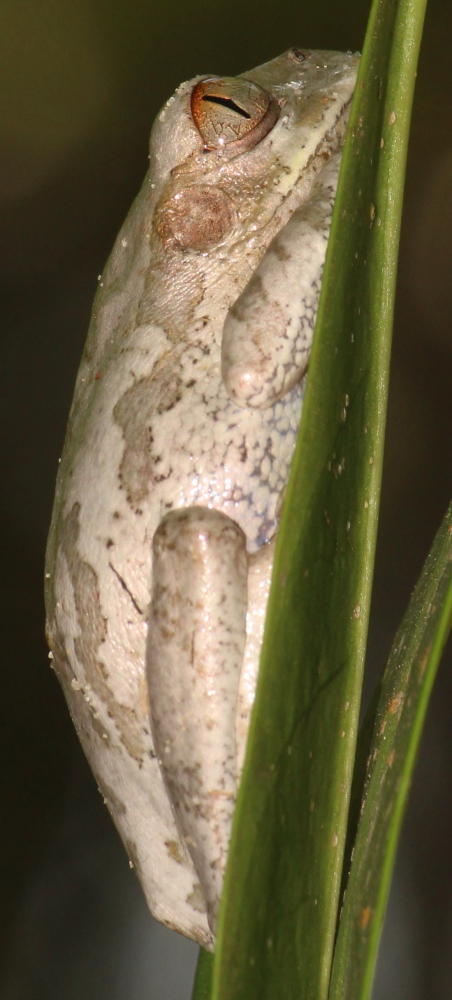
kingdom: Animalia
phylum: Chordata
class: Amphibia
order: Anura
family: Arthroleptidae
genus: Leptopelis
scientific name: Leptopelis natalensis
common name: Natal tree frog
